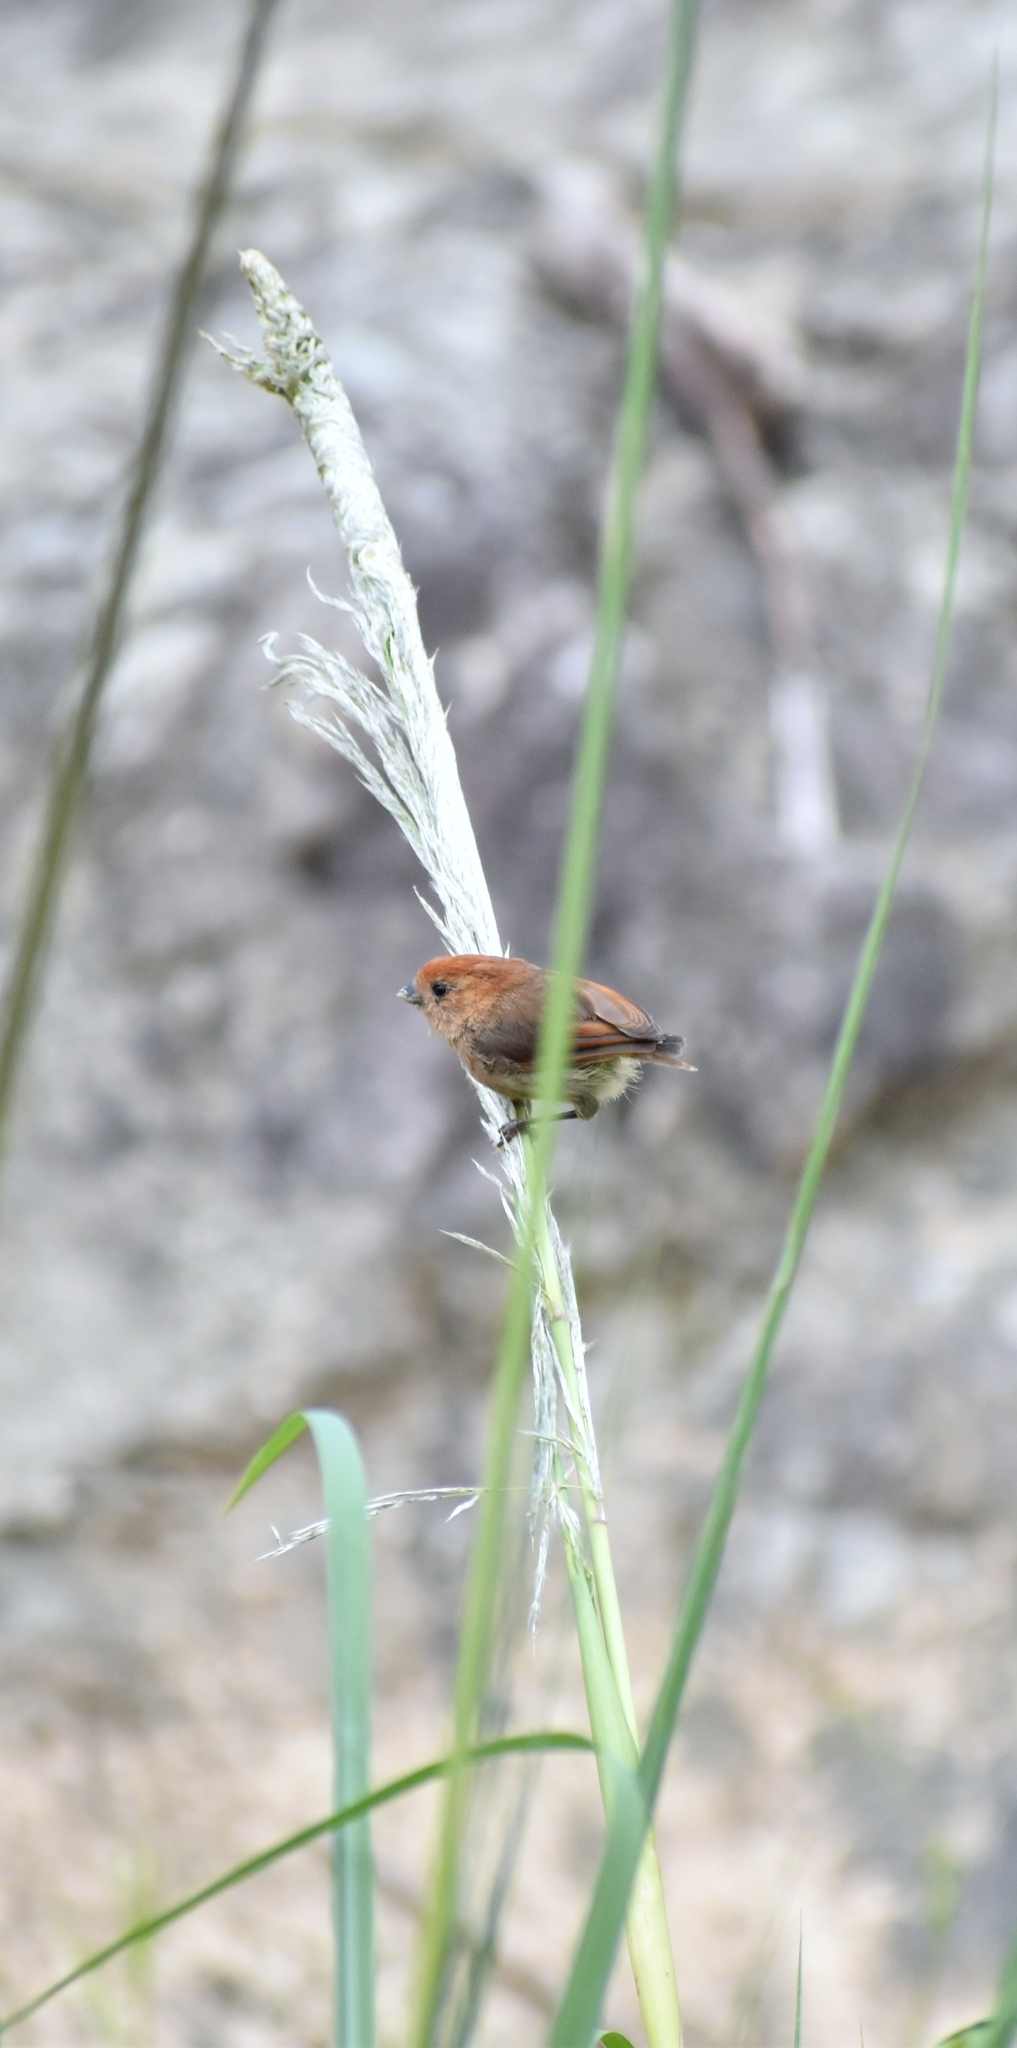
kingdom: Animalia
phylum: Chordata
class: Aves
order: Passeriformes
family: Sylviidae
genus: Sinosuthora
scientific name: Sinosuthora webbiana
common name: Vinous-throated parrotbill
